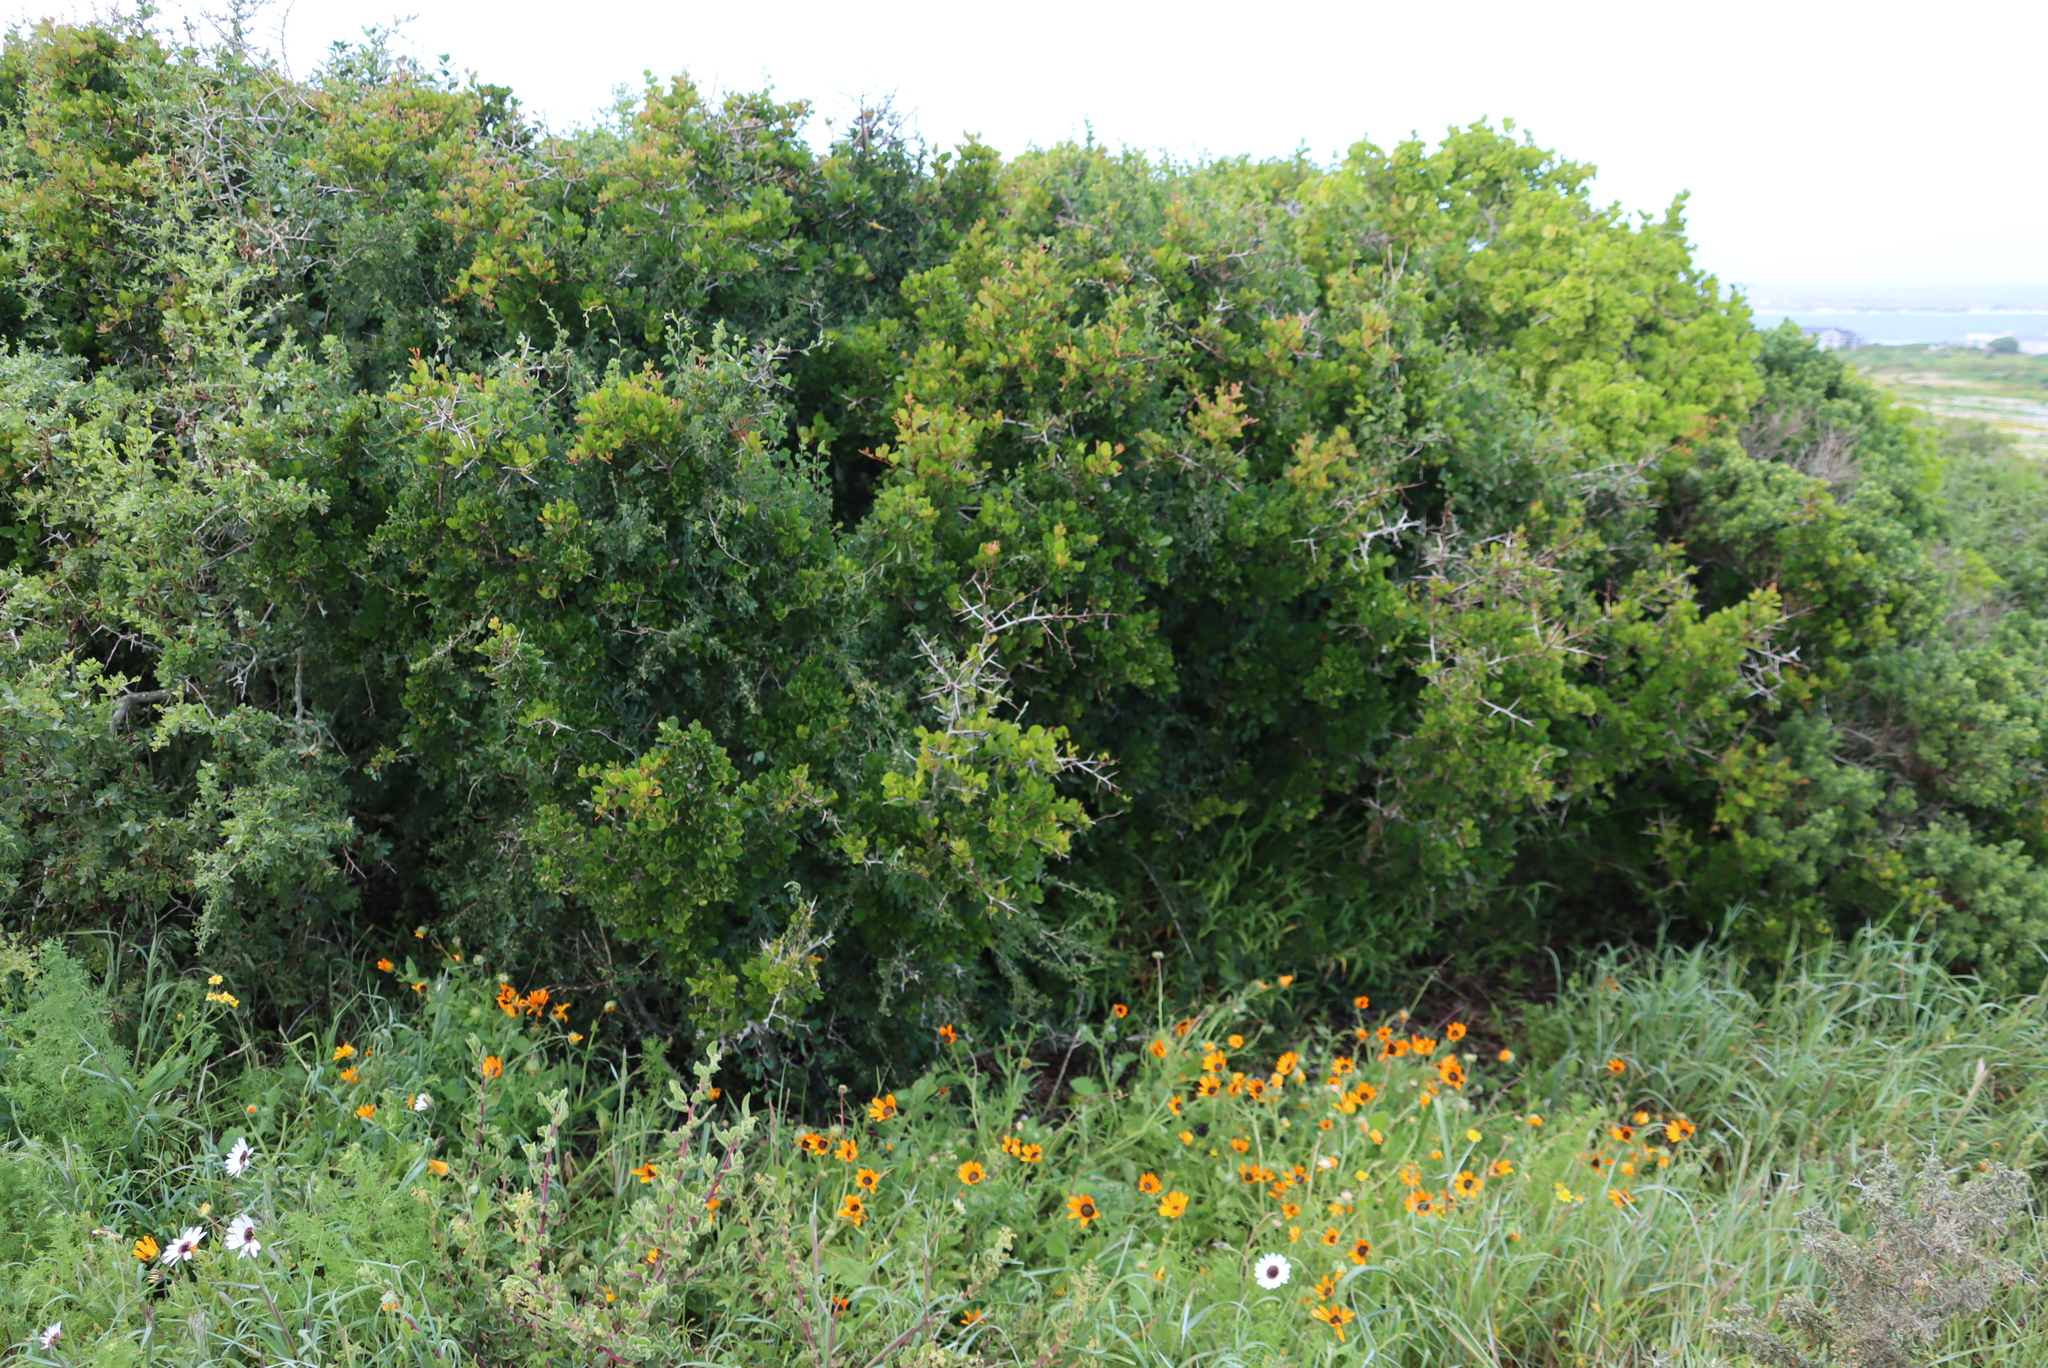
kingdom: Plantae
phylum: Tracheophyta
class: Magnoliopsida
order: Sapindales
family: Anacardiaceae
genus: Searsia
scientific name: Searsia pterota
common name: Winged currant
